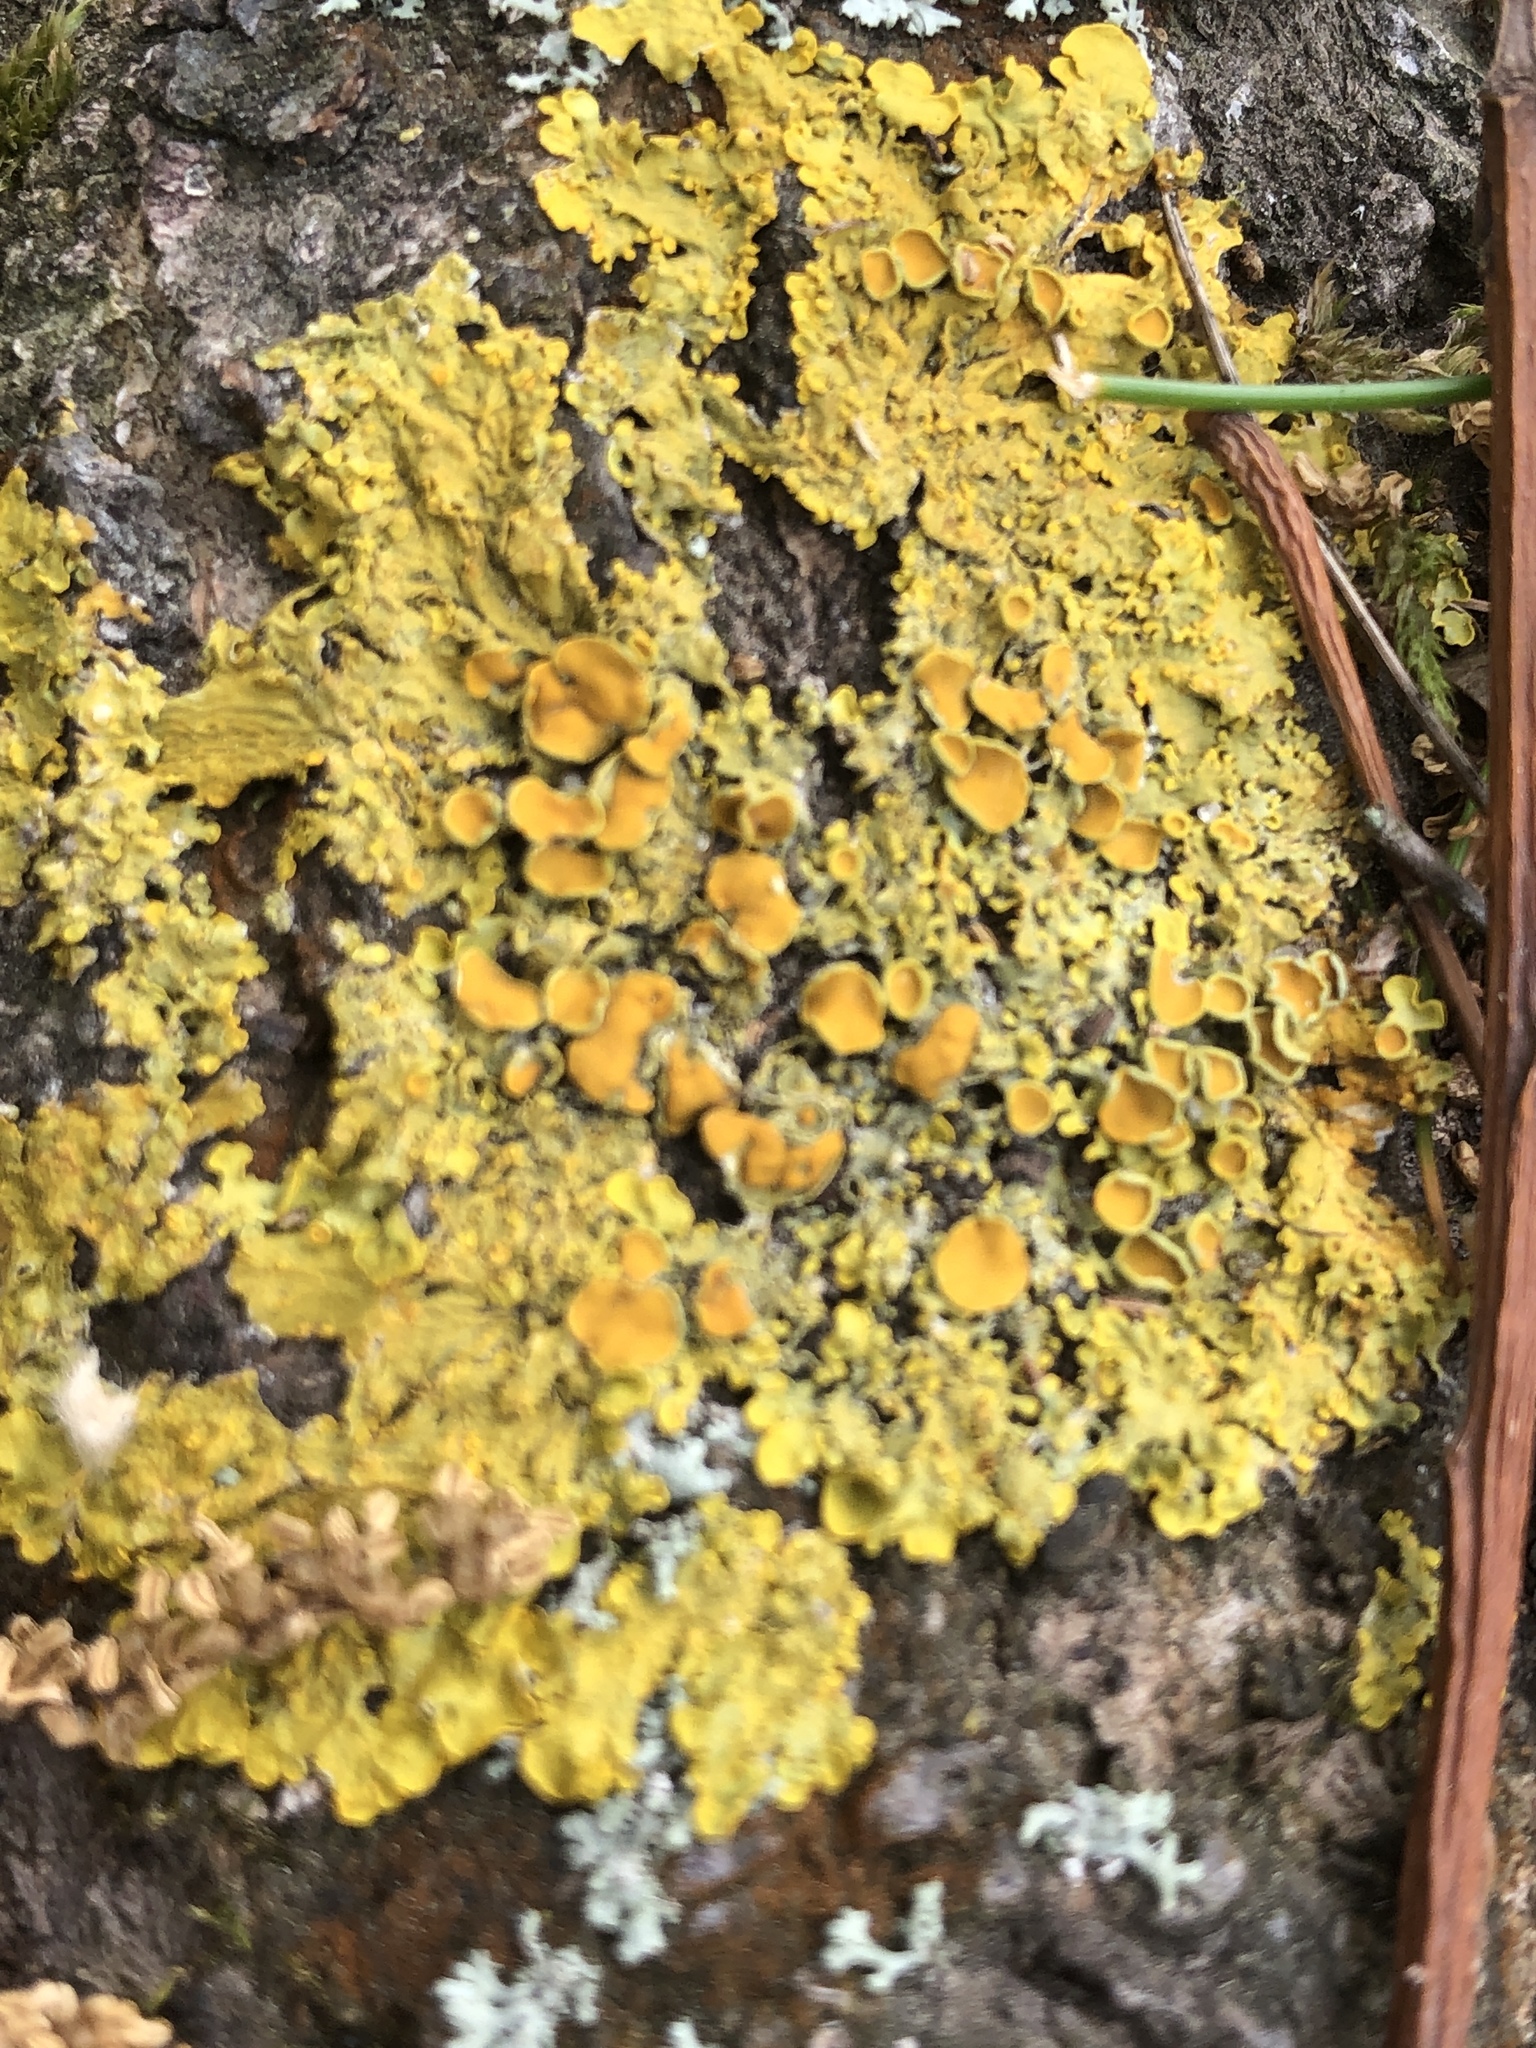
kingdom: Fungi
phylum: Ascomycota
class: Lecanoromycetes
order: Teloschistales
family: Teloschistaceae
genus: Xanthoria
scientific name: Xanthoria parietina
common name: Common orange lichen
